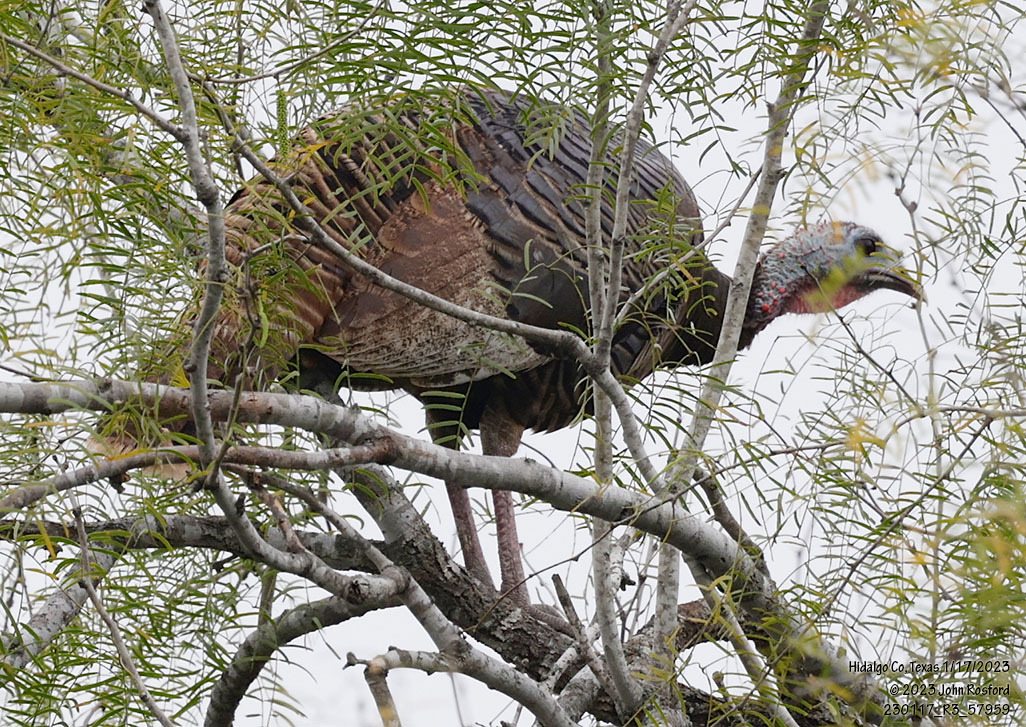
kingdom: Animalia
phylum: Chordata
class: Aves
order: Galliformes
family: Phasianidae
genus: Meleagris
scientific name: Meleagris gallopavo
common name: Wild turkey
